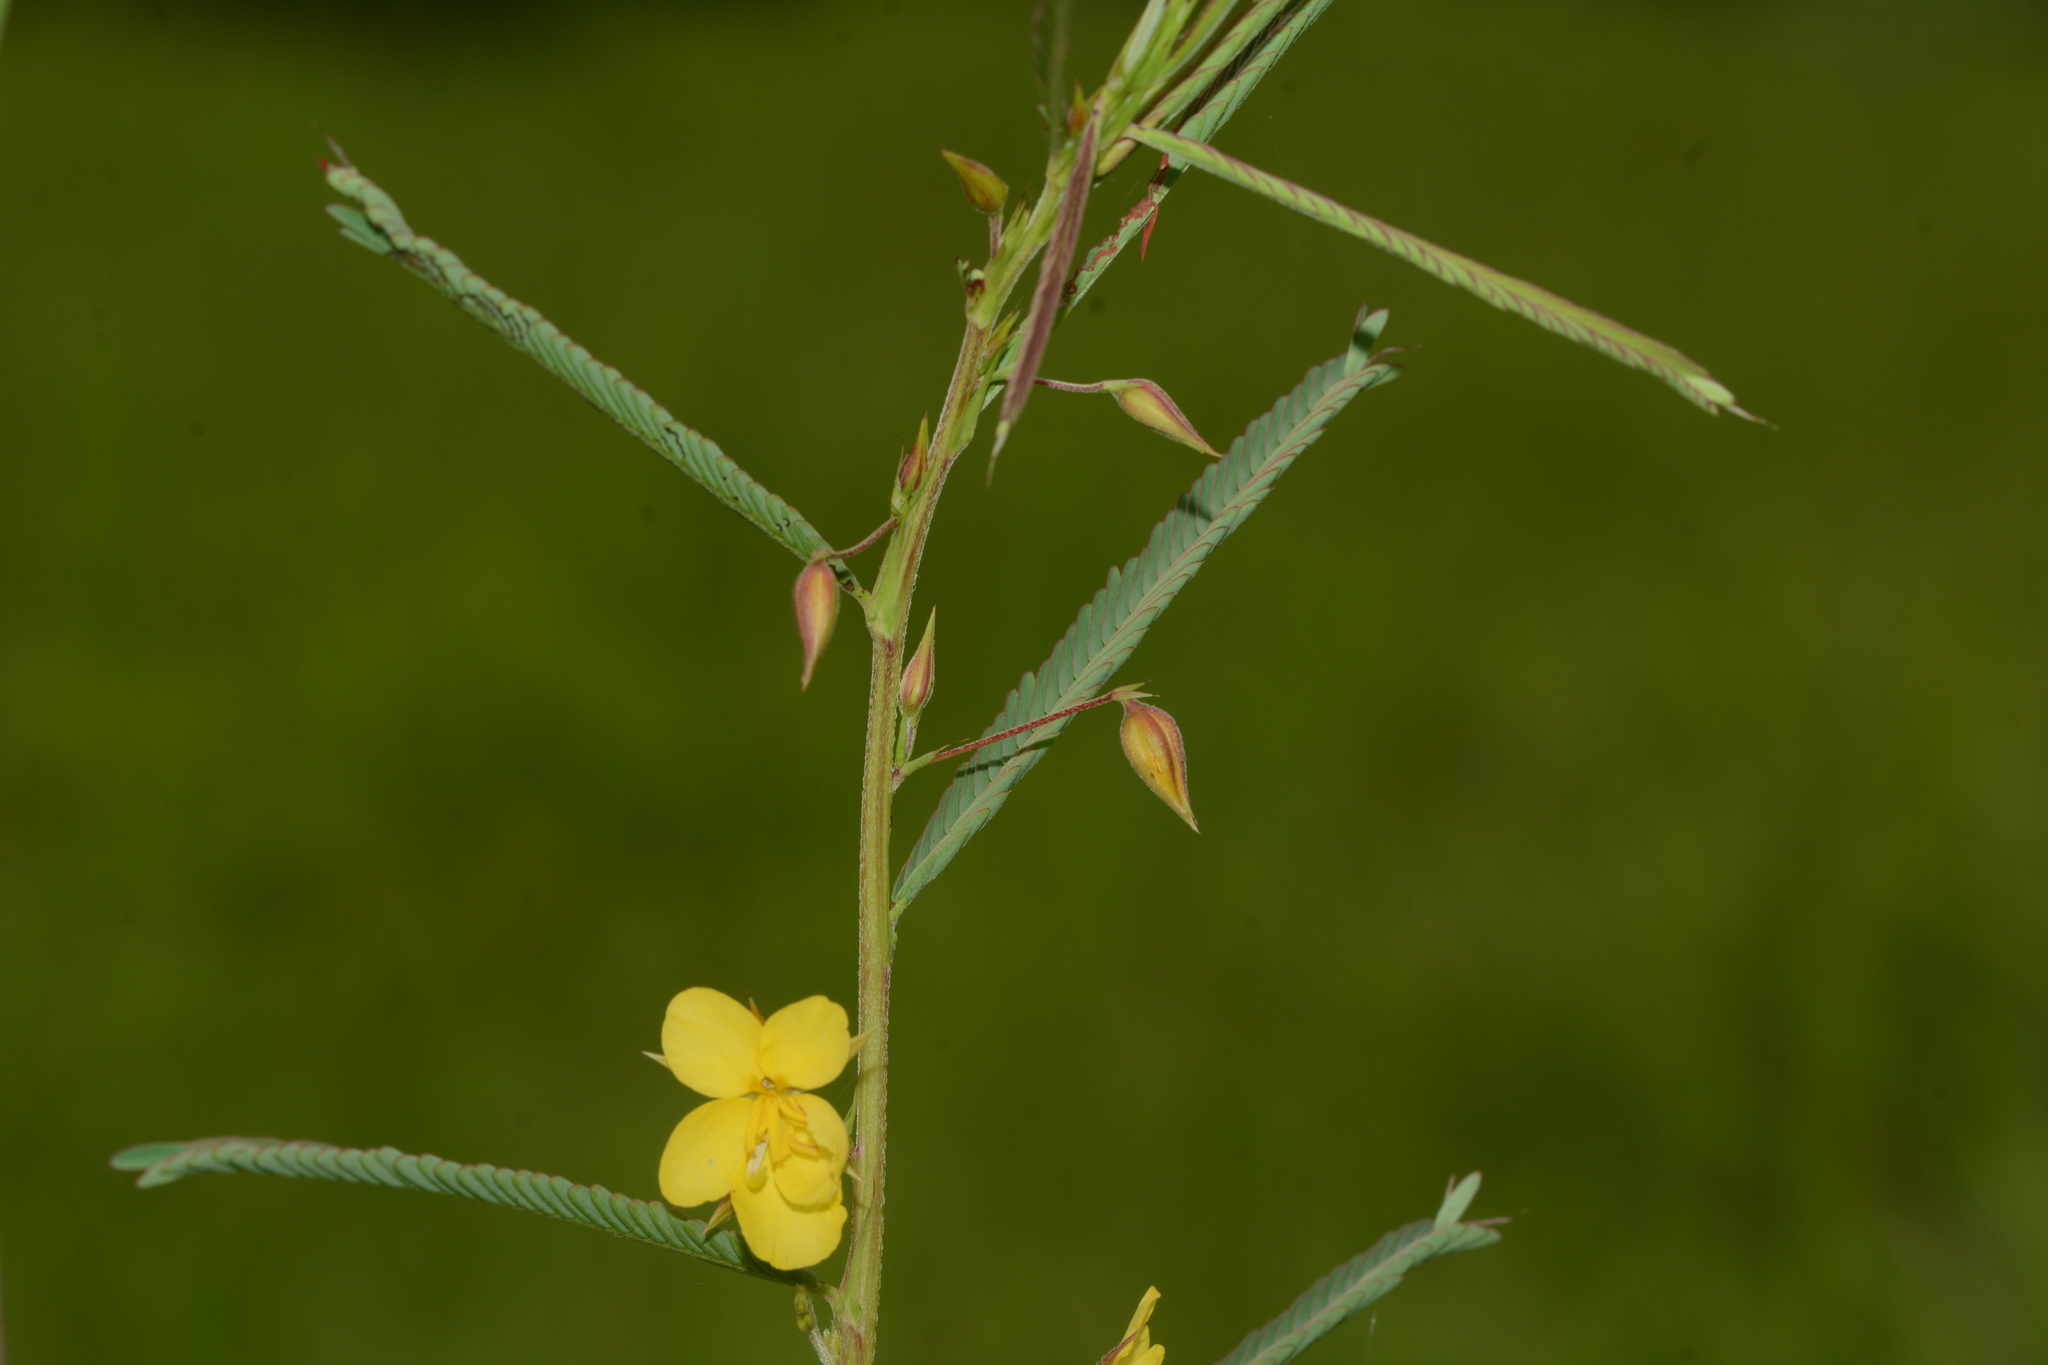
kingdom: Plantae
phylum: Tracheophyta
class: Magnoliopsida
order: Fabales
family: Fabaceae
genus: Chamaecrista
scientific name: Chamaecrista mimosoides
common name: Fish-bone cassia
